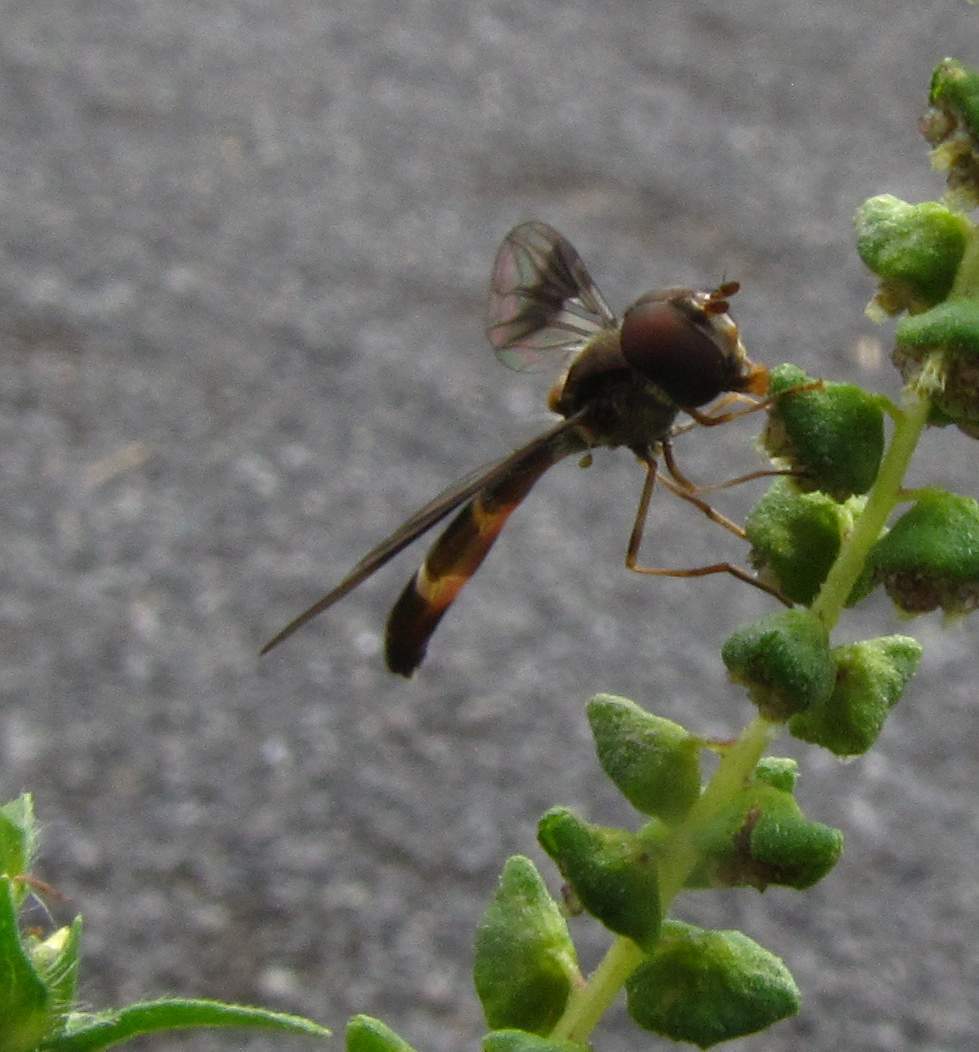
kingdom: Animalia
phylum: Arthropoda
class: Insecta
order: Diptera
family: Syrphidae
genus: Hypocritanus
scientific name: Hypocritanus fascipennis
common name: Eastern band-winged hover fly
